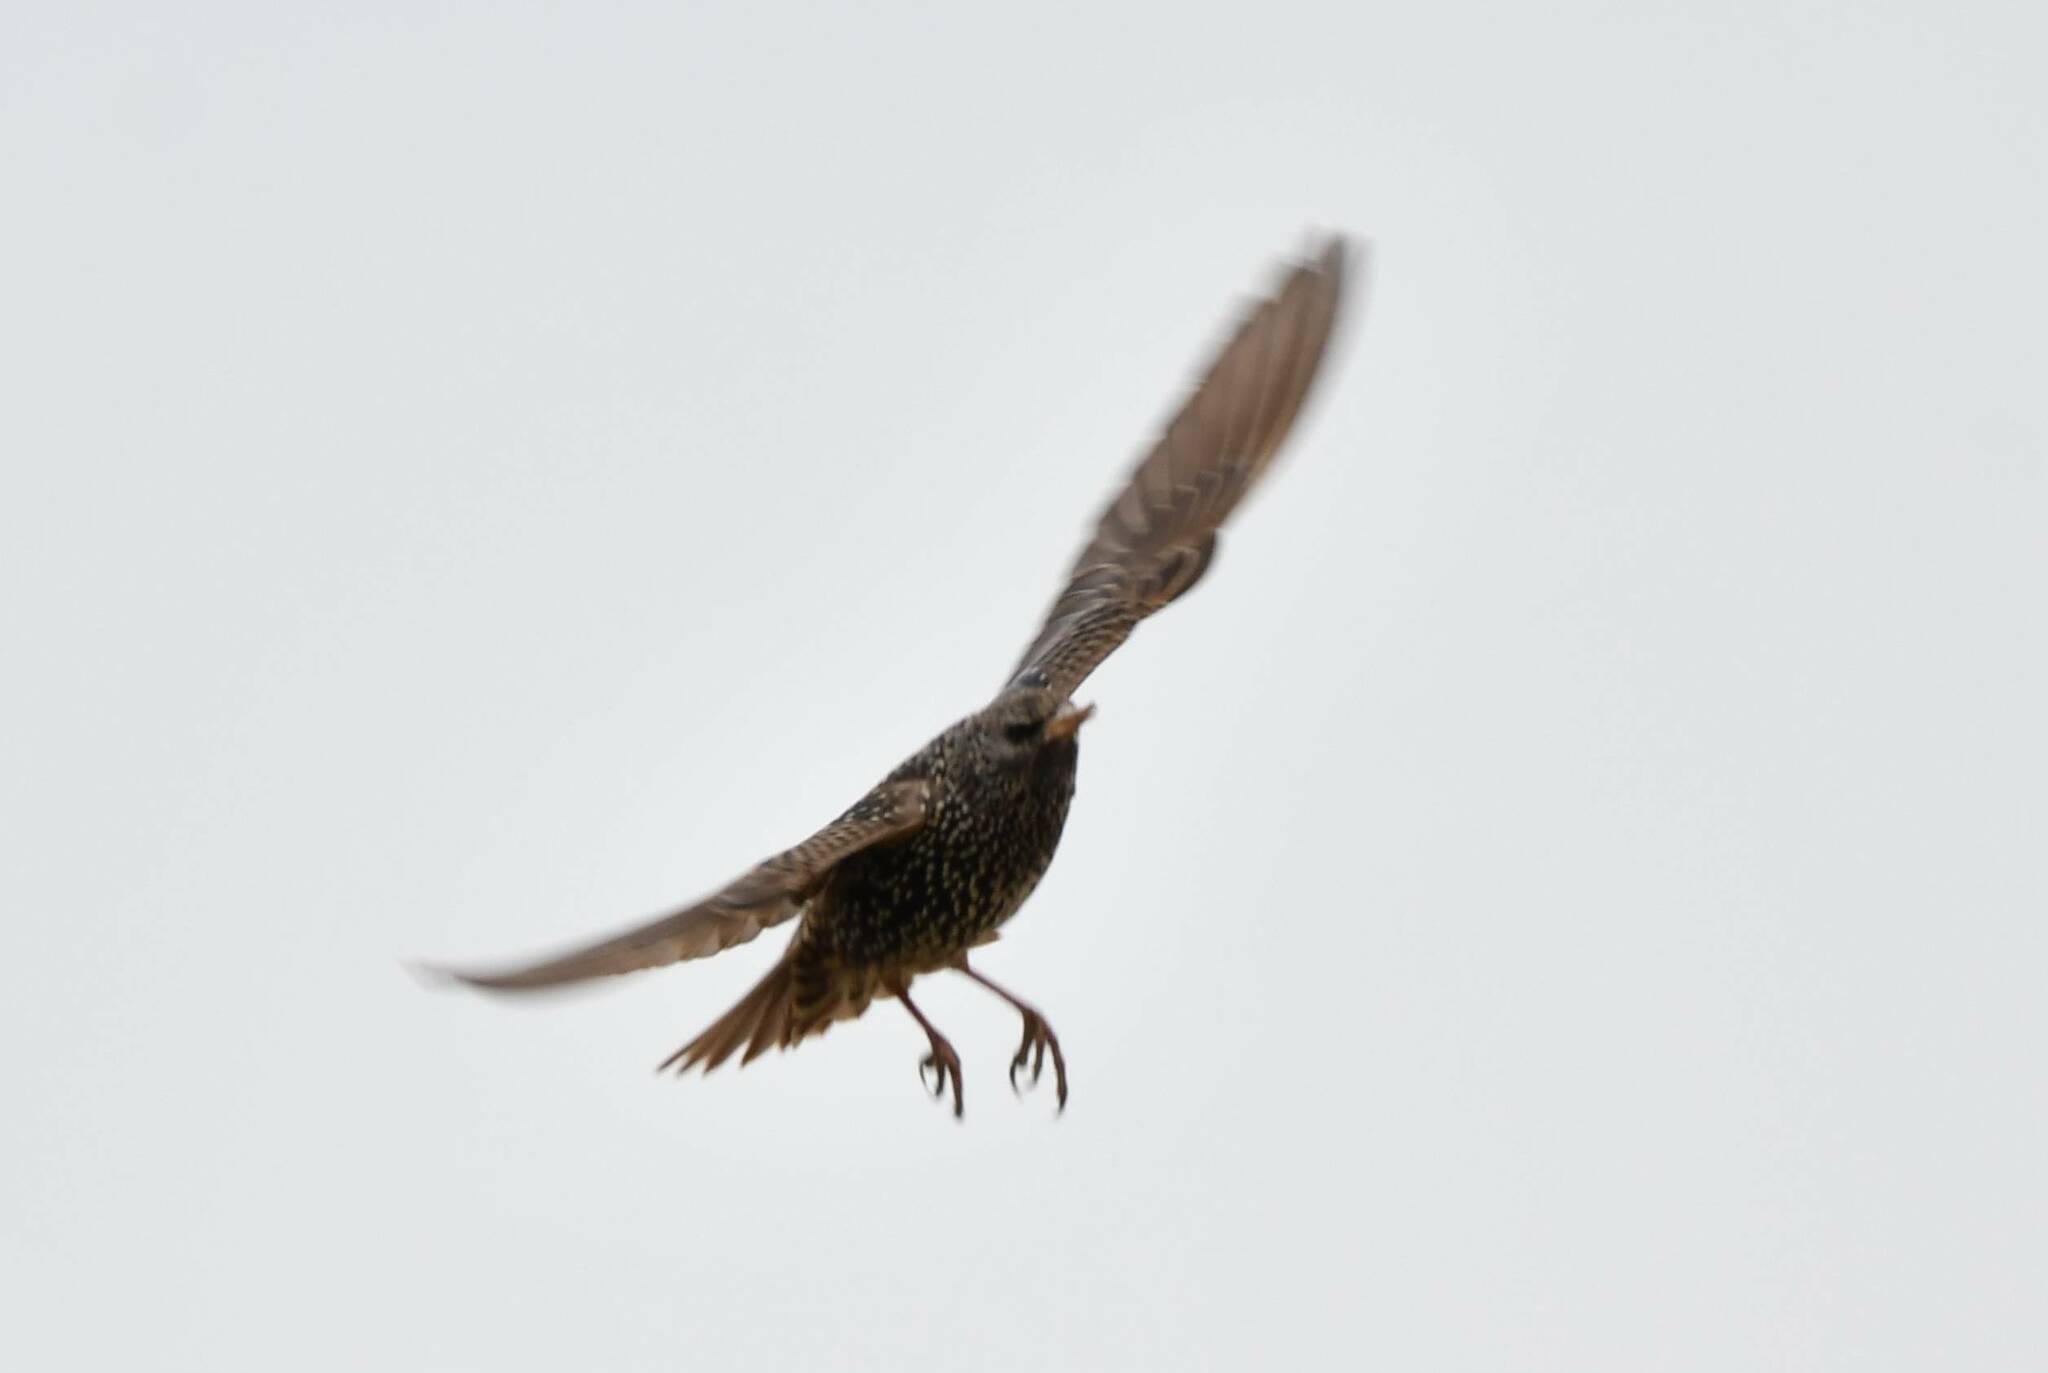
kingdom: Animalia
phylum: Chordata
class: Aves
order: Passeriformes
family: Sturnidae
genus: Sturnus
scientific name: Sturnus vulgaris
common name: Common starling
